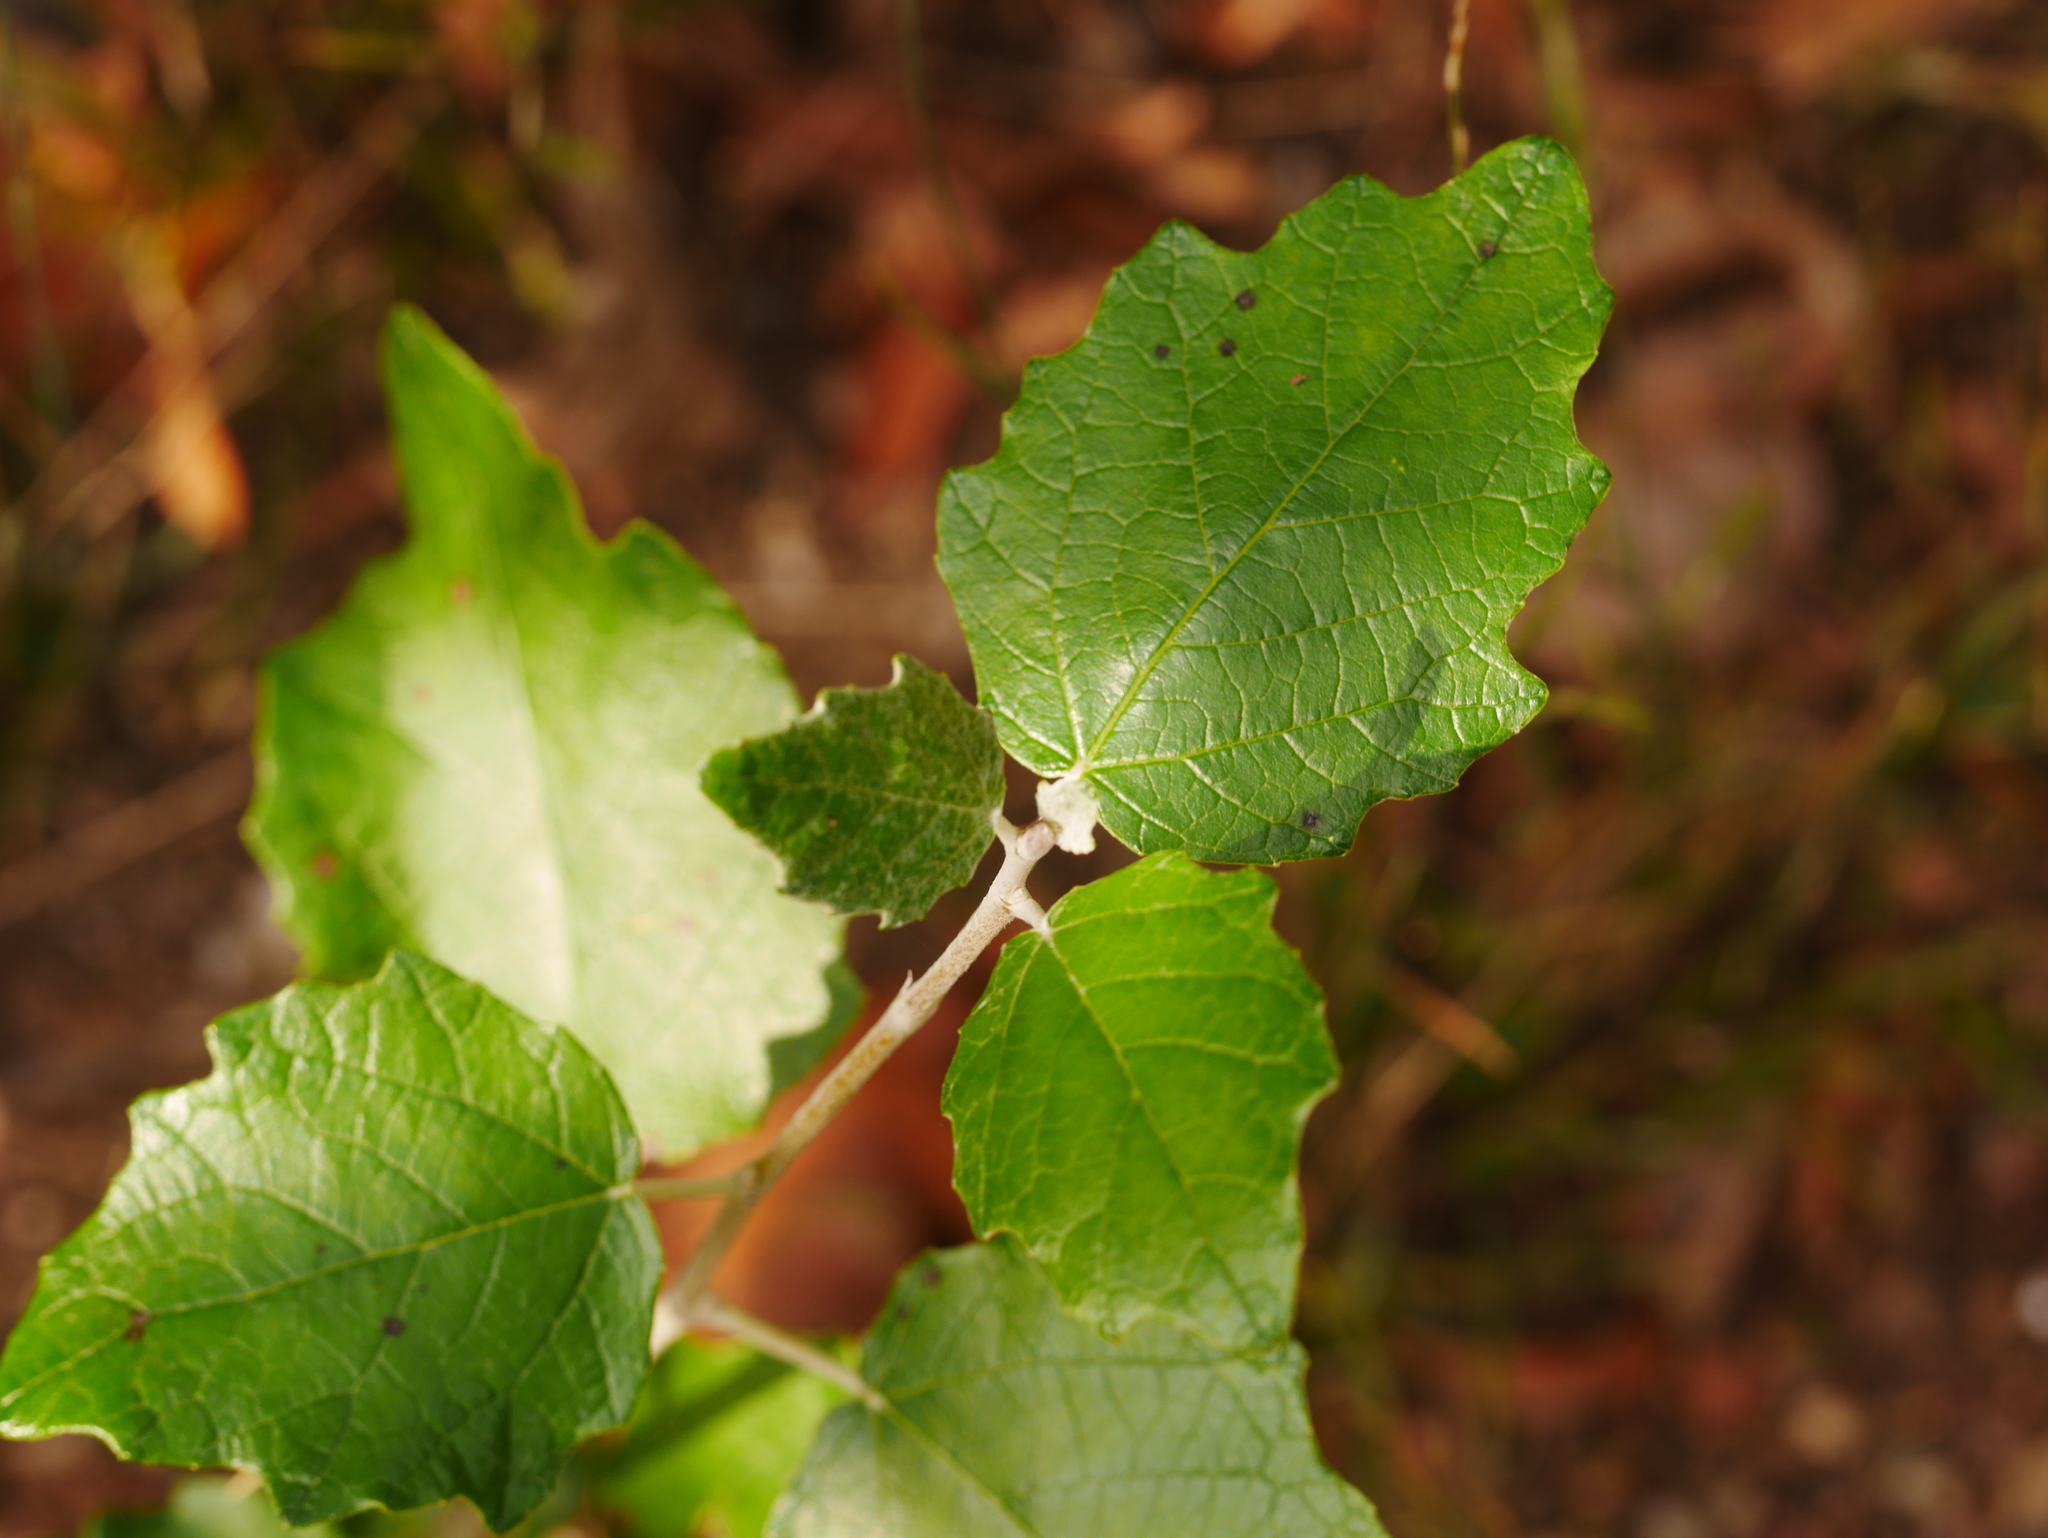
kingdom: Plantae
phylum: Tracheophyta
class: Magnoliopsida
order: Malpighiales
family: Salicaceae
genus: Populus
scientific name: Populus alba
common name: White poplar
